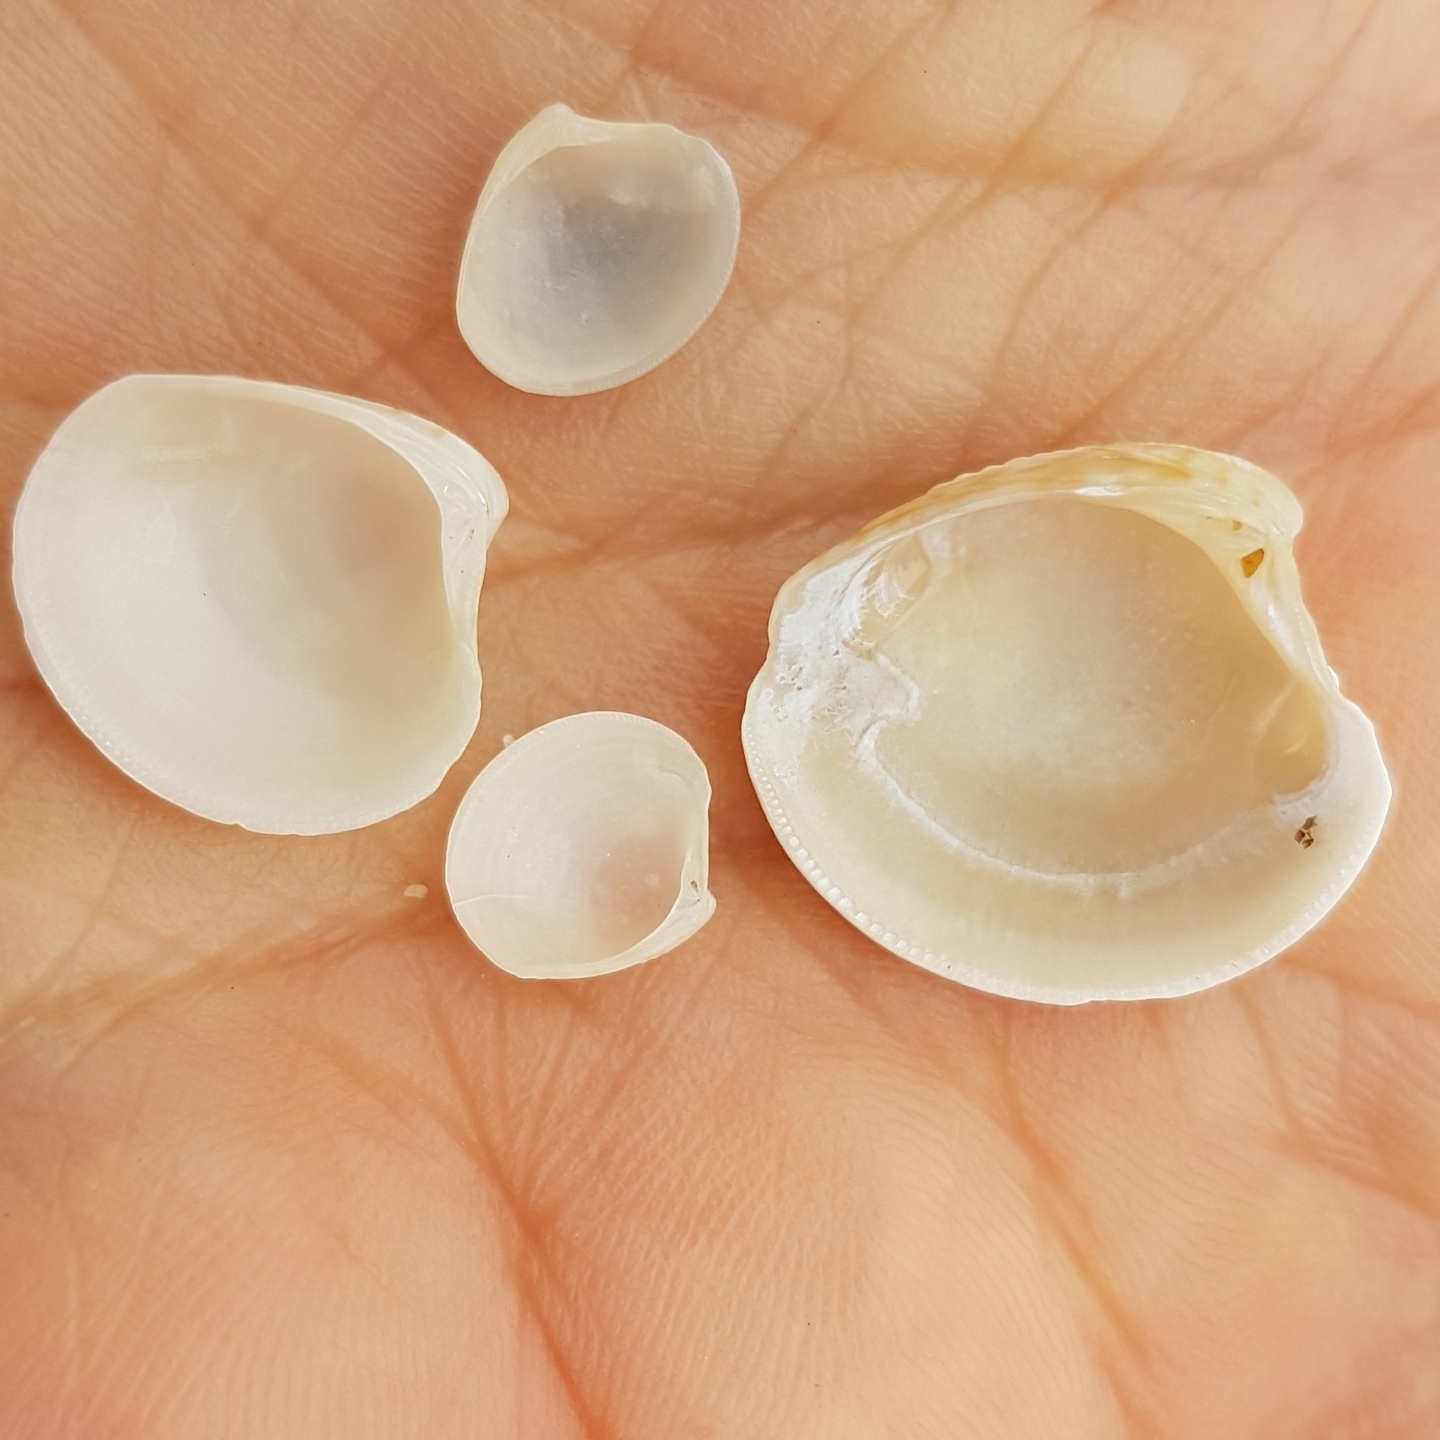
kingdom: Animalia
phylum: Mollusca
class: Bivalvia
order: Venerida
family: Veneridae
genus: Chamelea
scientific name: Chamelea gallina
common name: Chicken venus
